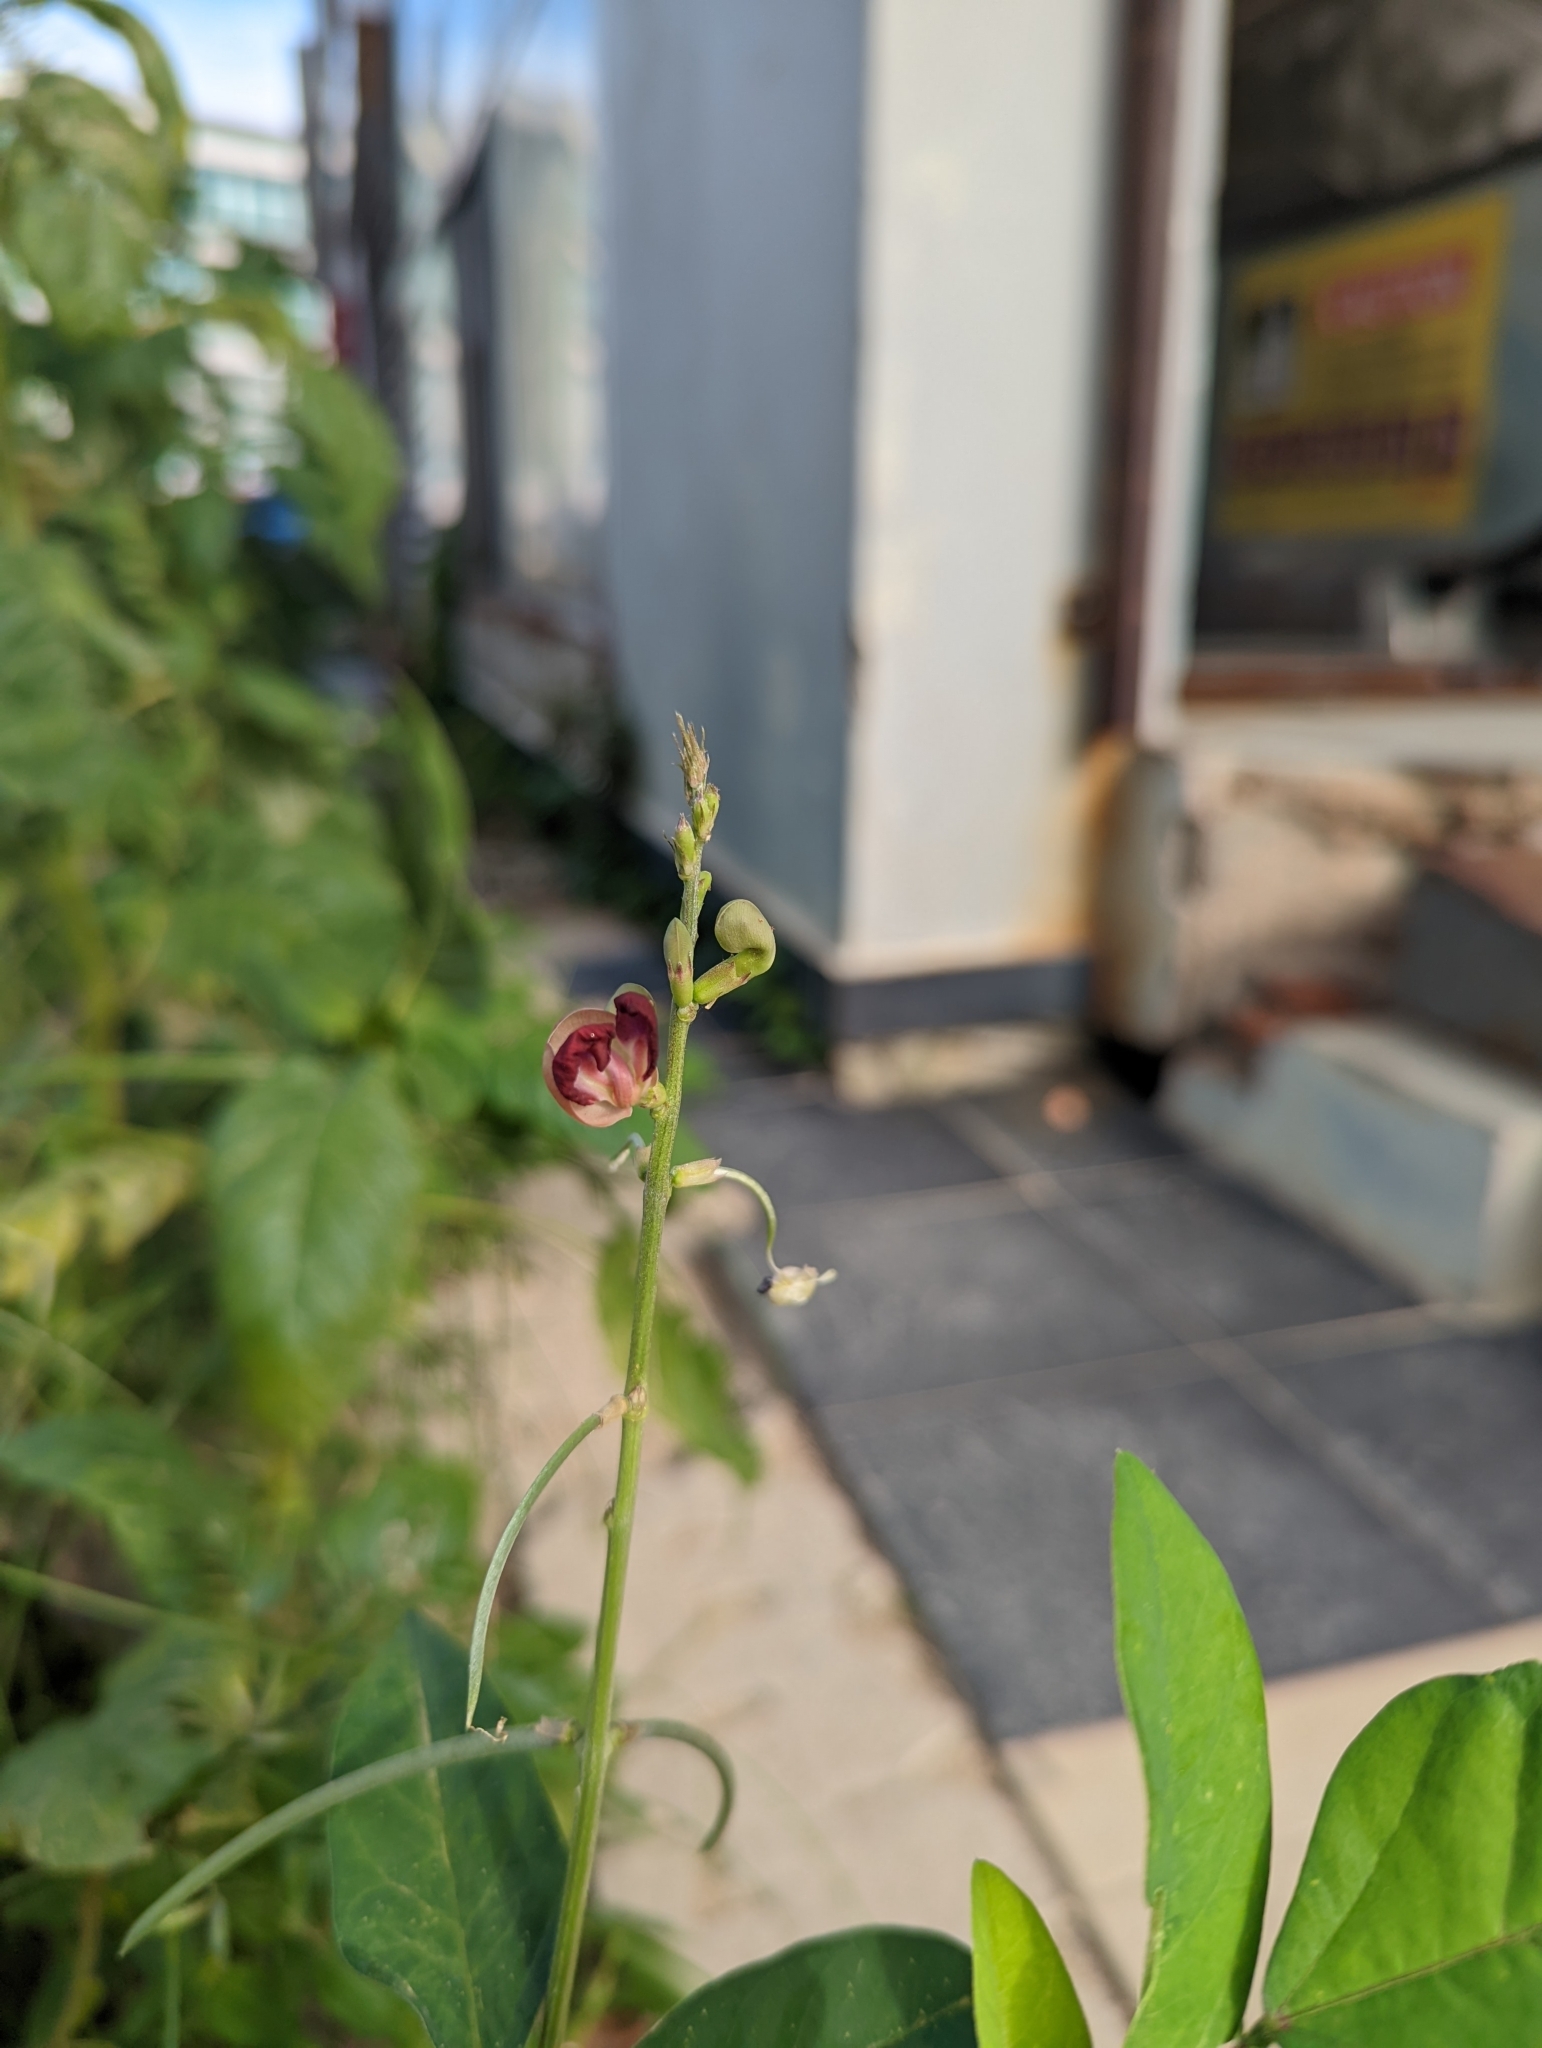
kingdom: Plantae
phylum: Tracheophyta
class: Magnoliopsida
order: Fabales
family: Fabaceae
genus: Macroptilium
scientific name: Macroptilium lathyroides
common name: Wild bushbean
